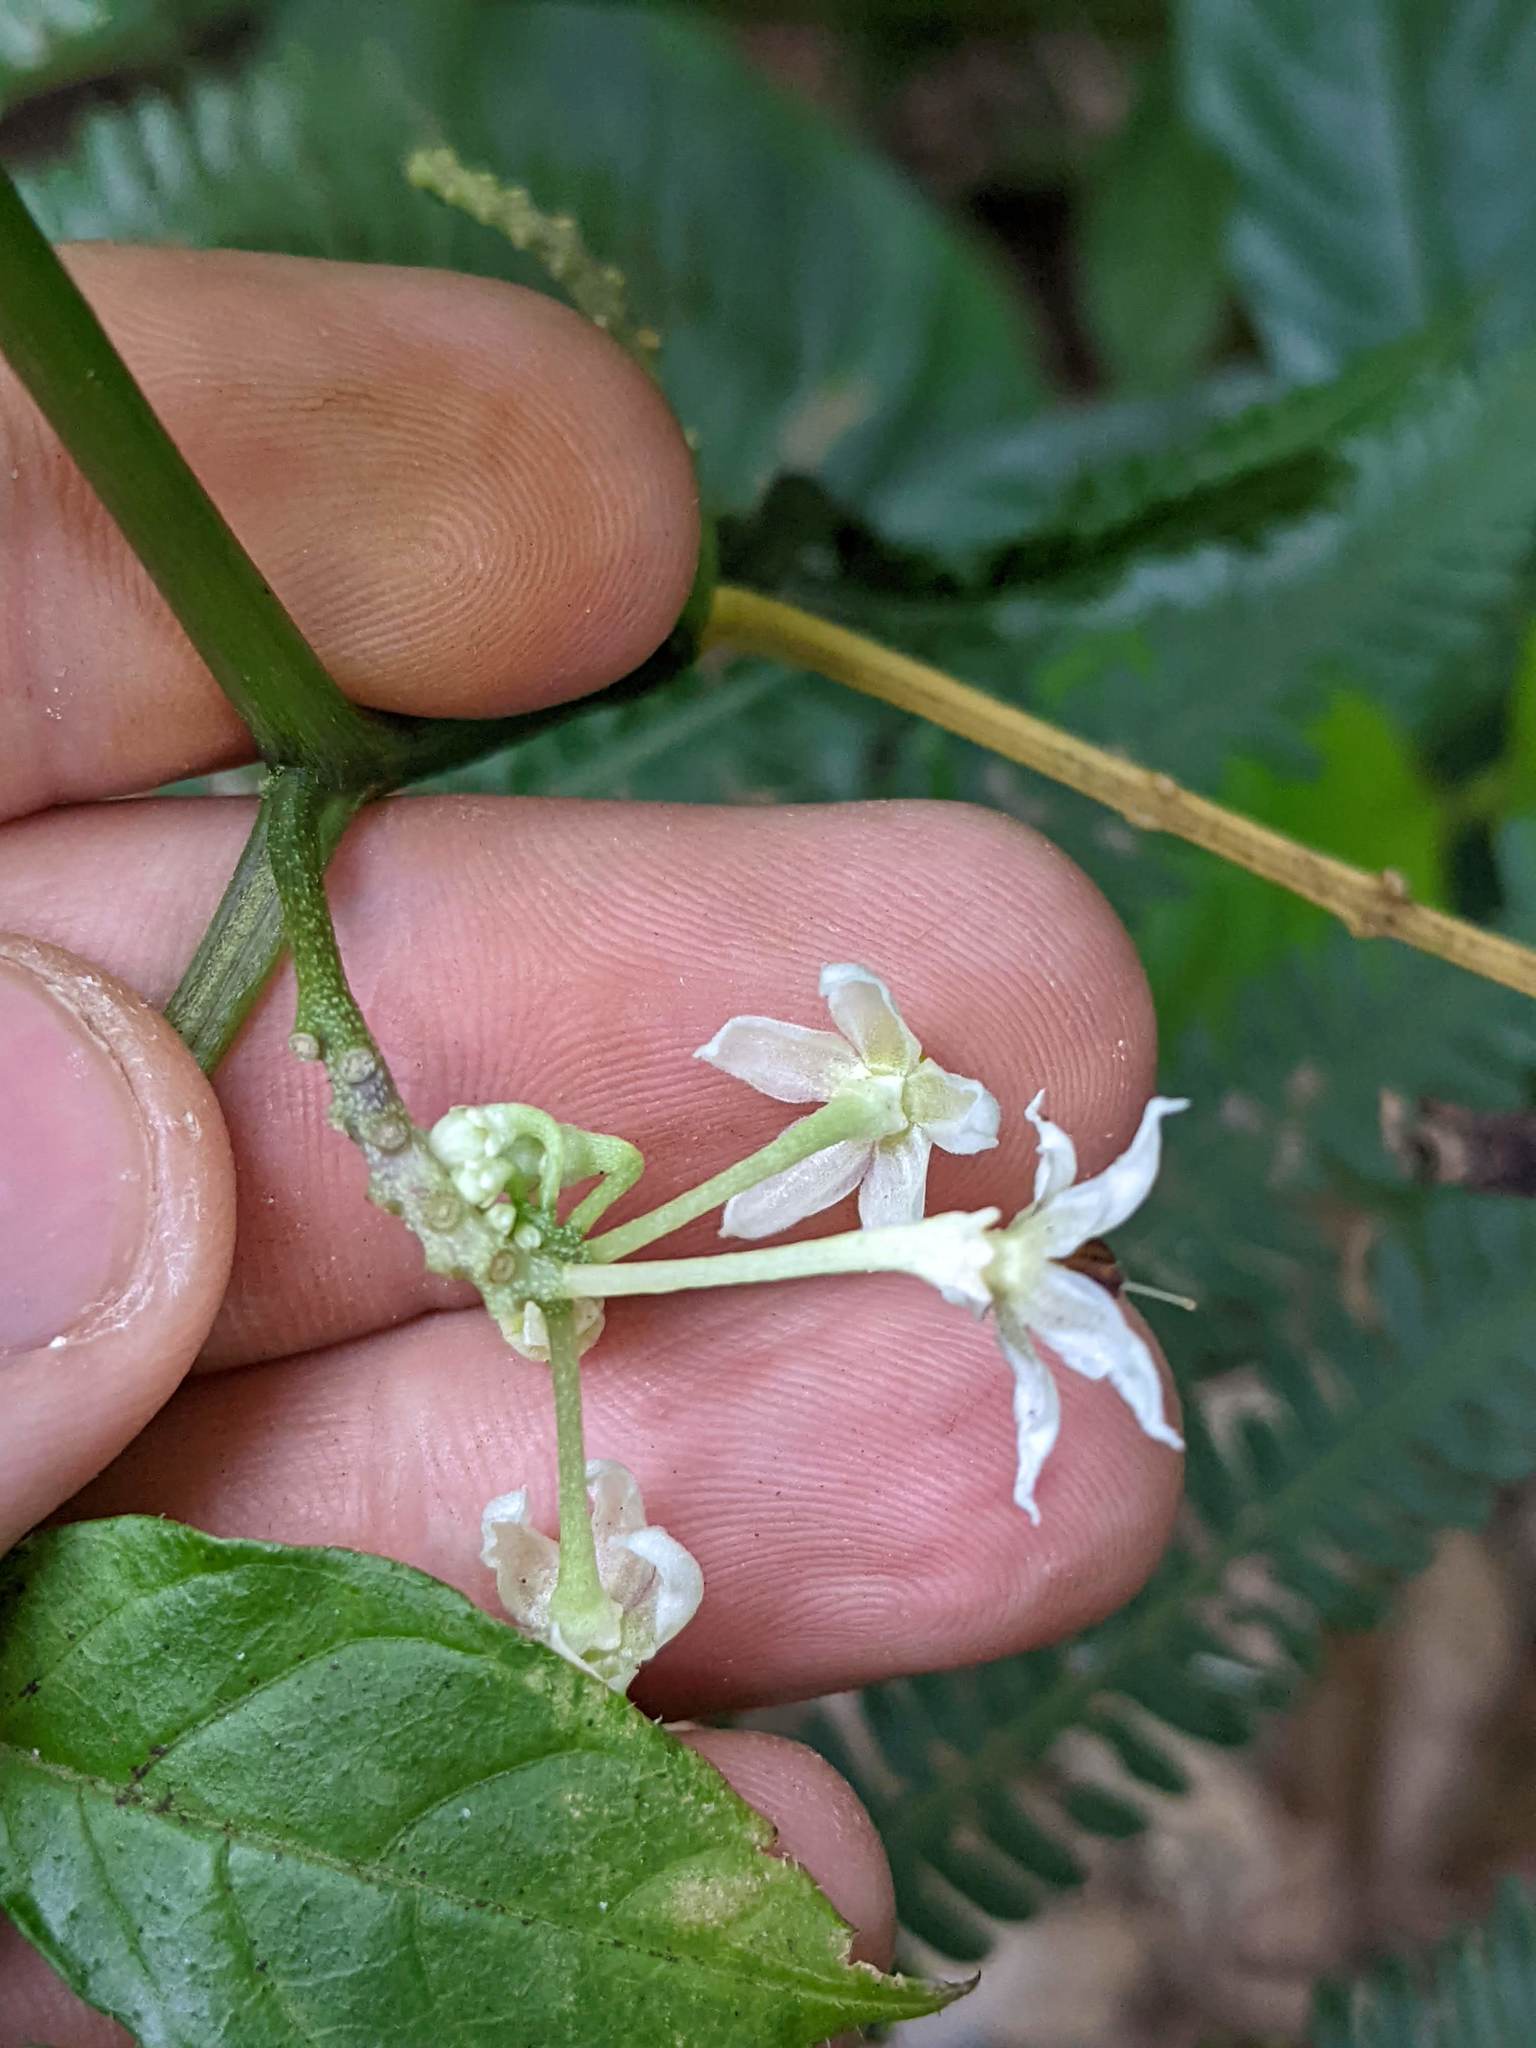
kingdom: Plantae
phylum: Tracheophyta
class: Magnoliopsida
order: Solanales
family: Solanaceae
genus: Solanum
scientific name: Solanum trizygum
